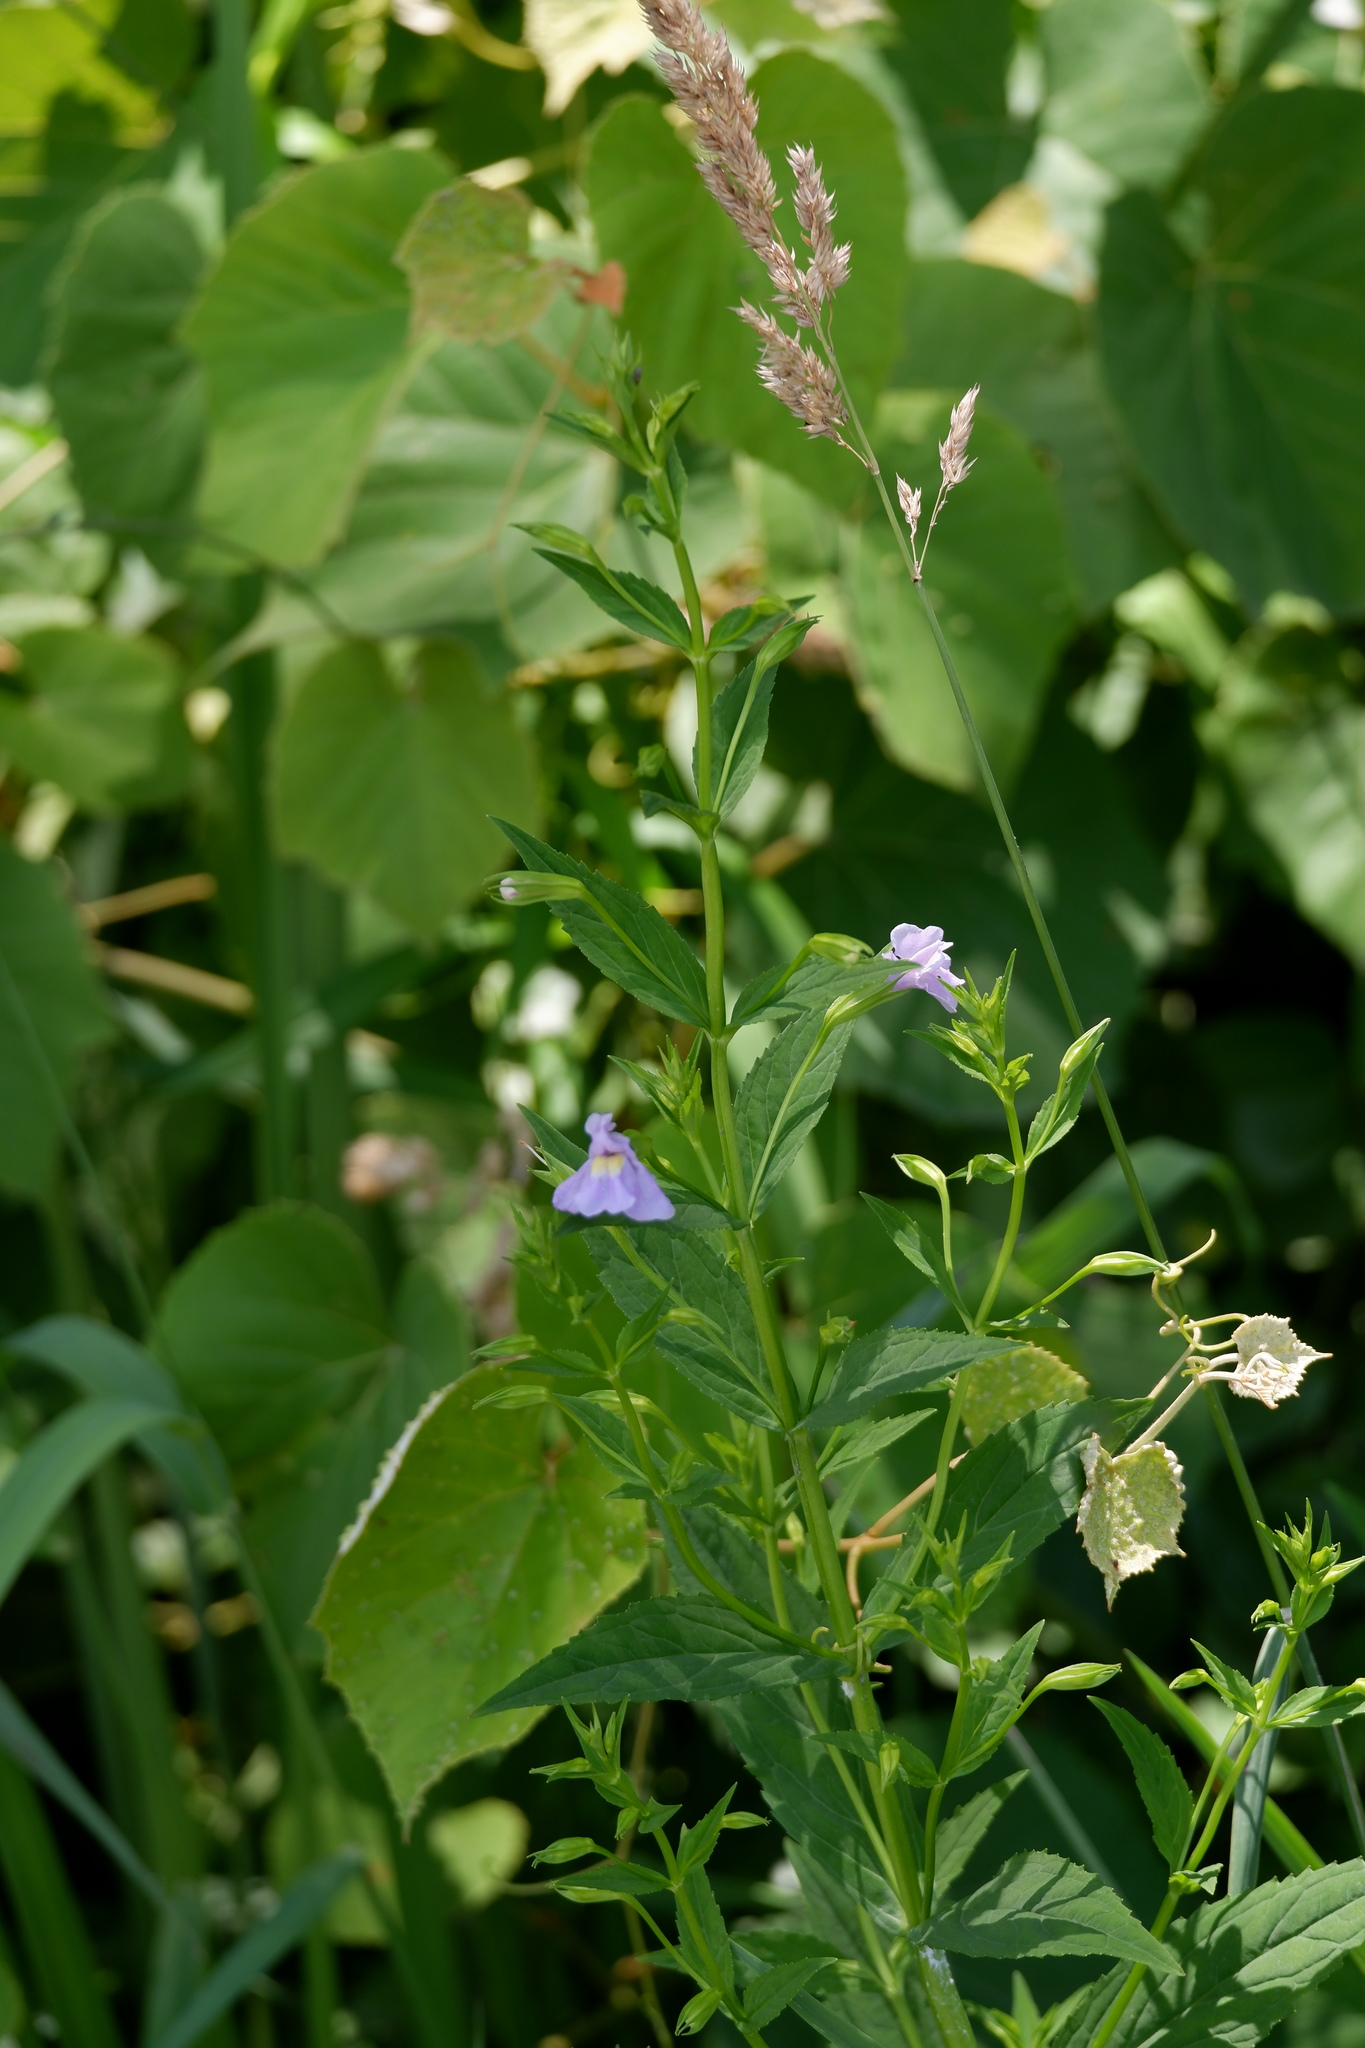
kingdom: Plantae
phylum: Tracheophyta
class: Magnoliopsida
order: Lamiales
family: Phrymaceae
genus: Mimulus
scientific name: Mimulus ringens
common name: Allegheny monkeyflower
